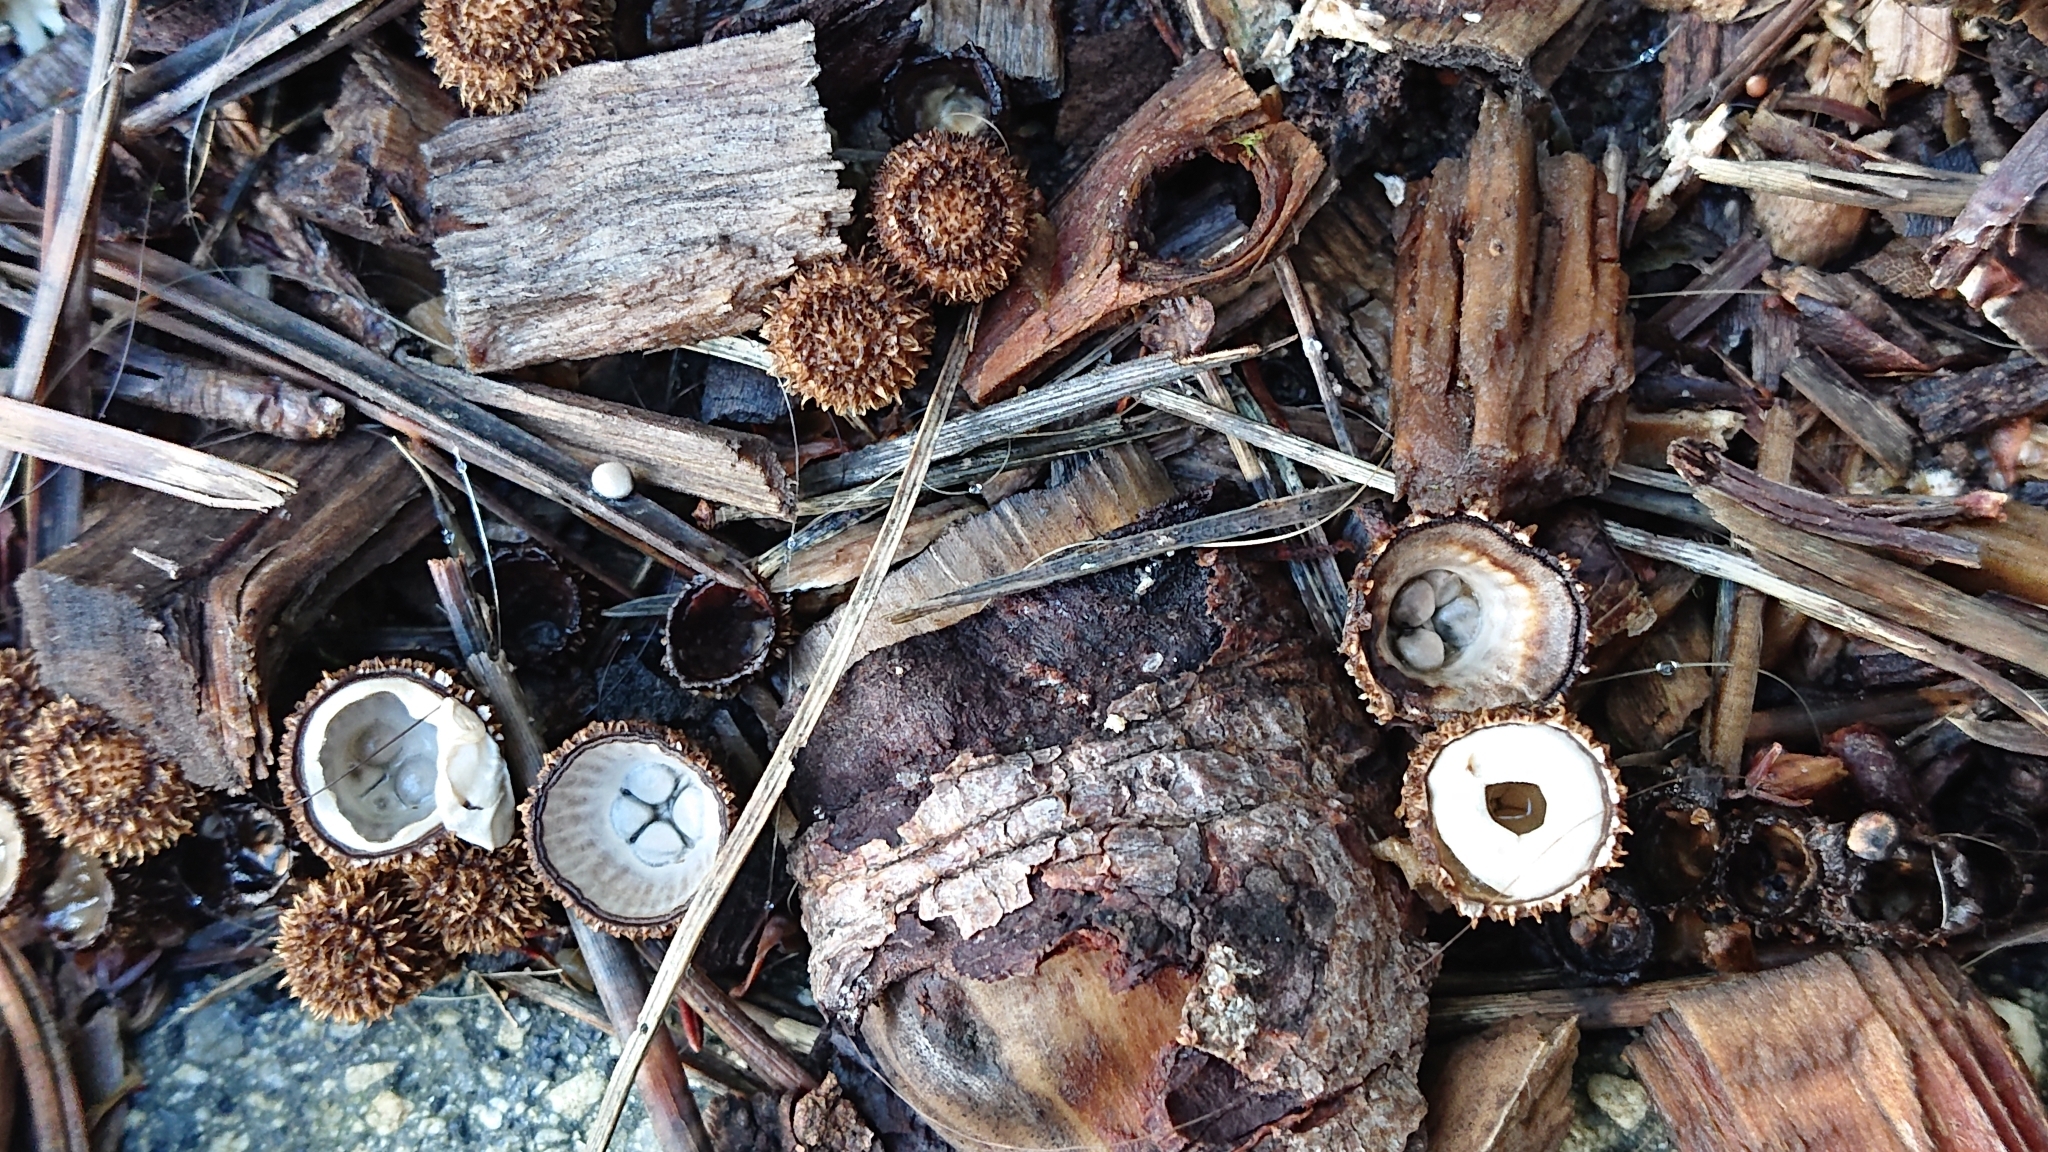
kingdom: Fungi
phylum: Basidiomycota
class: Agaricomycetes
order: Agaricales
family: Agaricaceae
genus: Cyathus
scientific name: Cyathus striatus
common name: Fluted bird's nest
